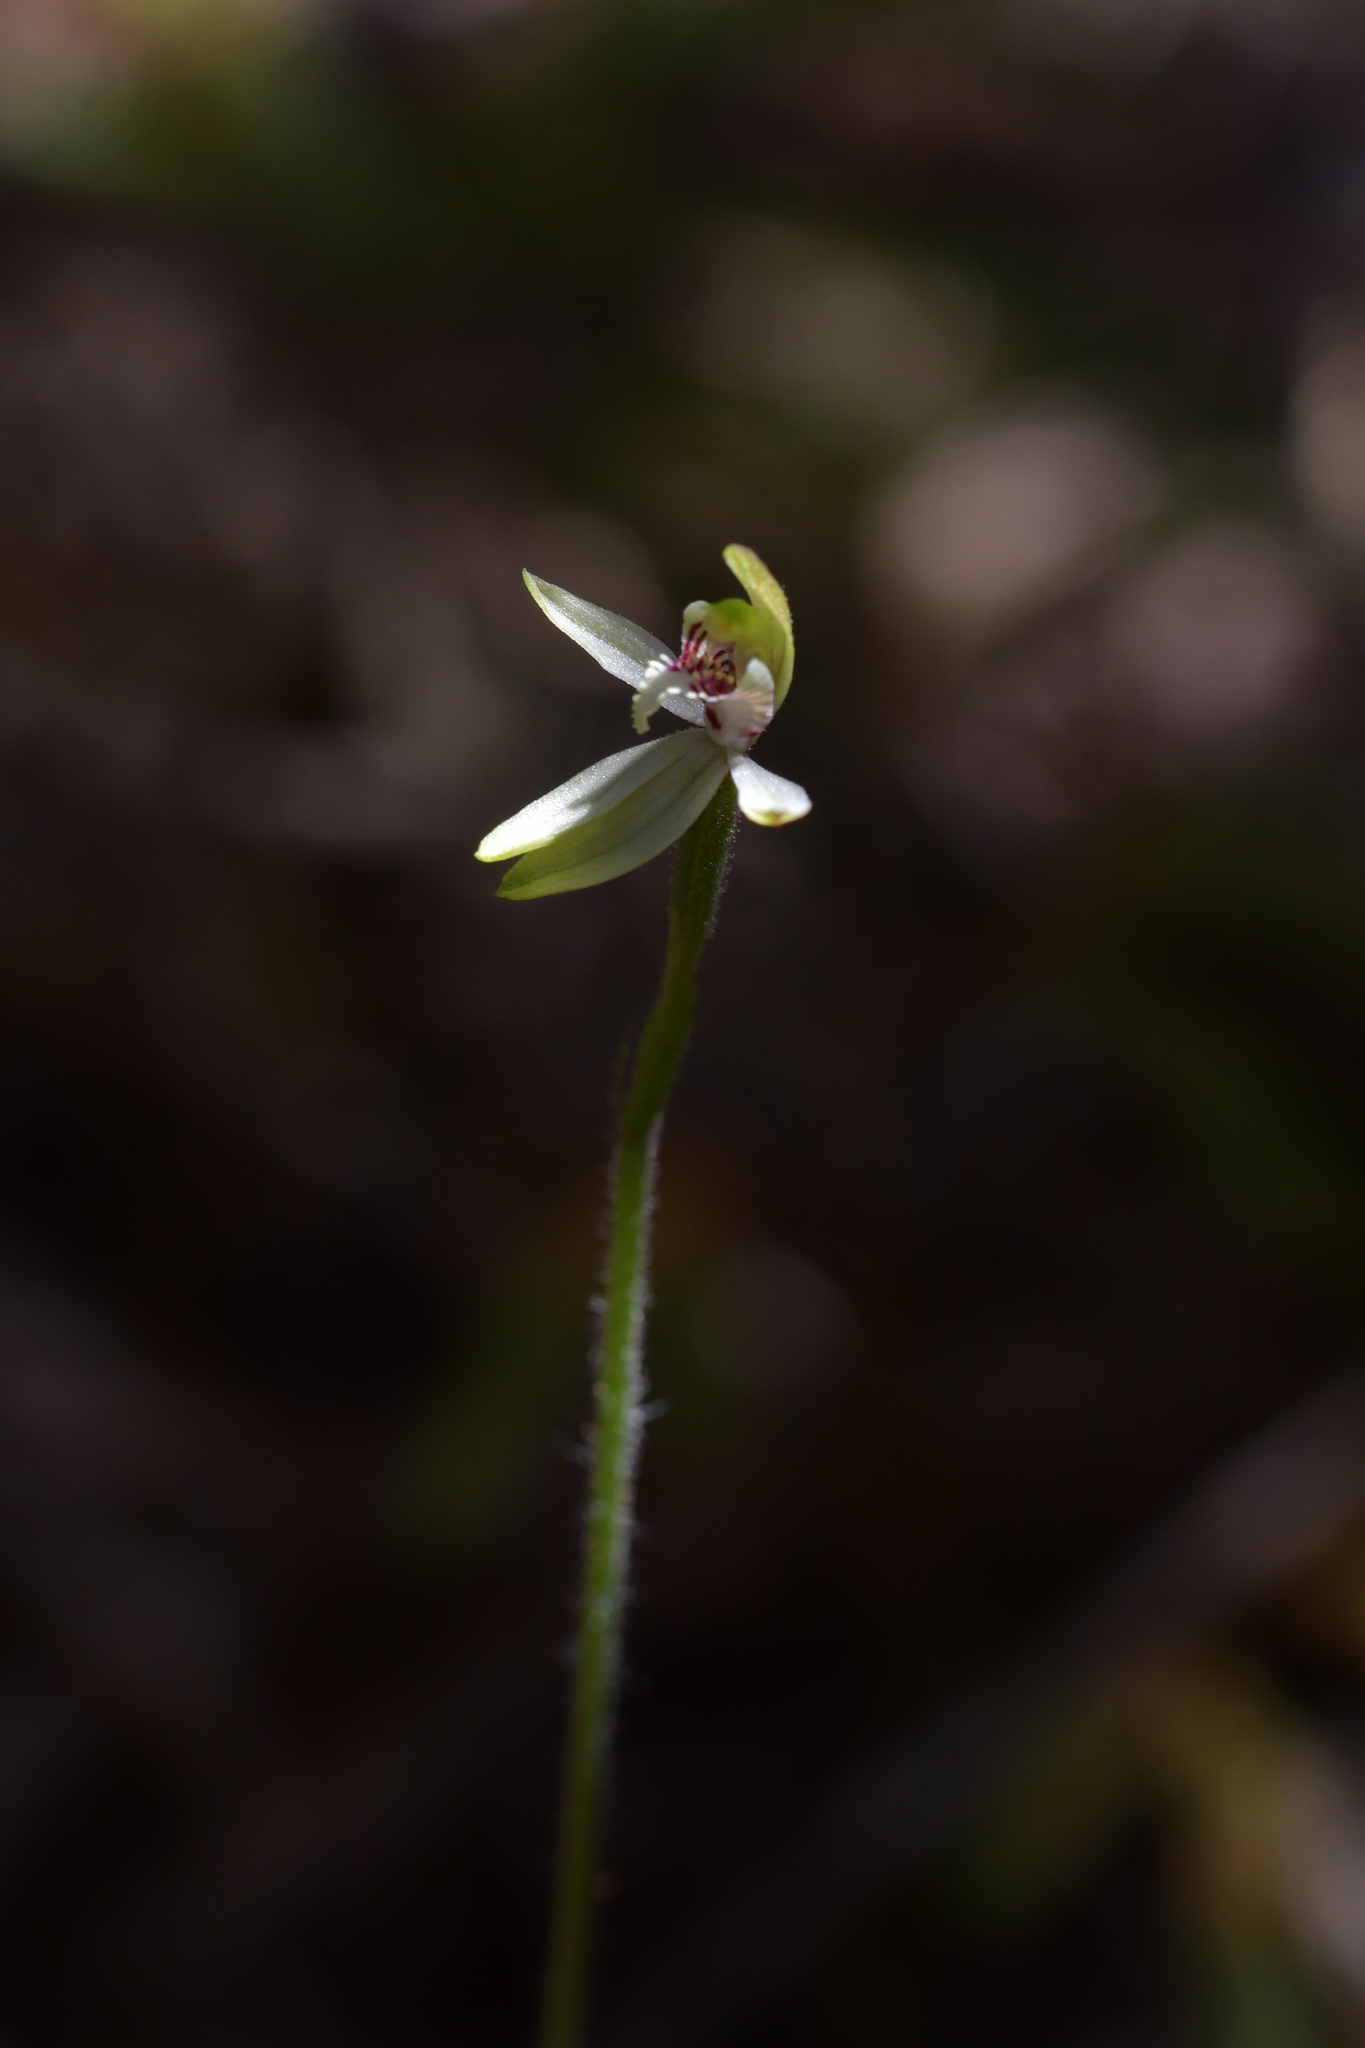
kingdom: Plantae
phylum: Tracheophyta
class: Liliopsida
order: Asparagales
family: Orchidaceae
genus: Caladenia
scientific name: Caladenia chlorostyla
